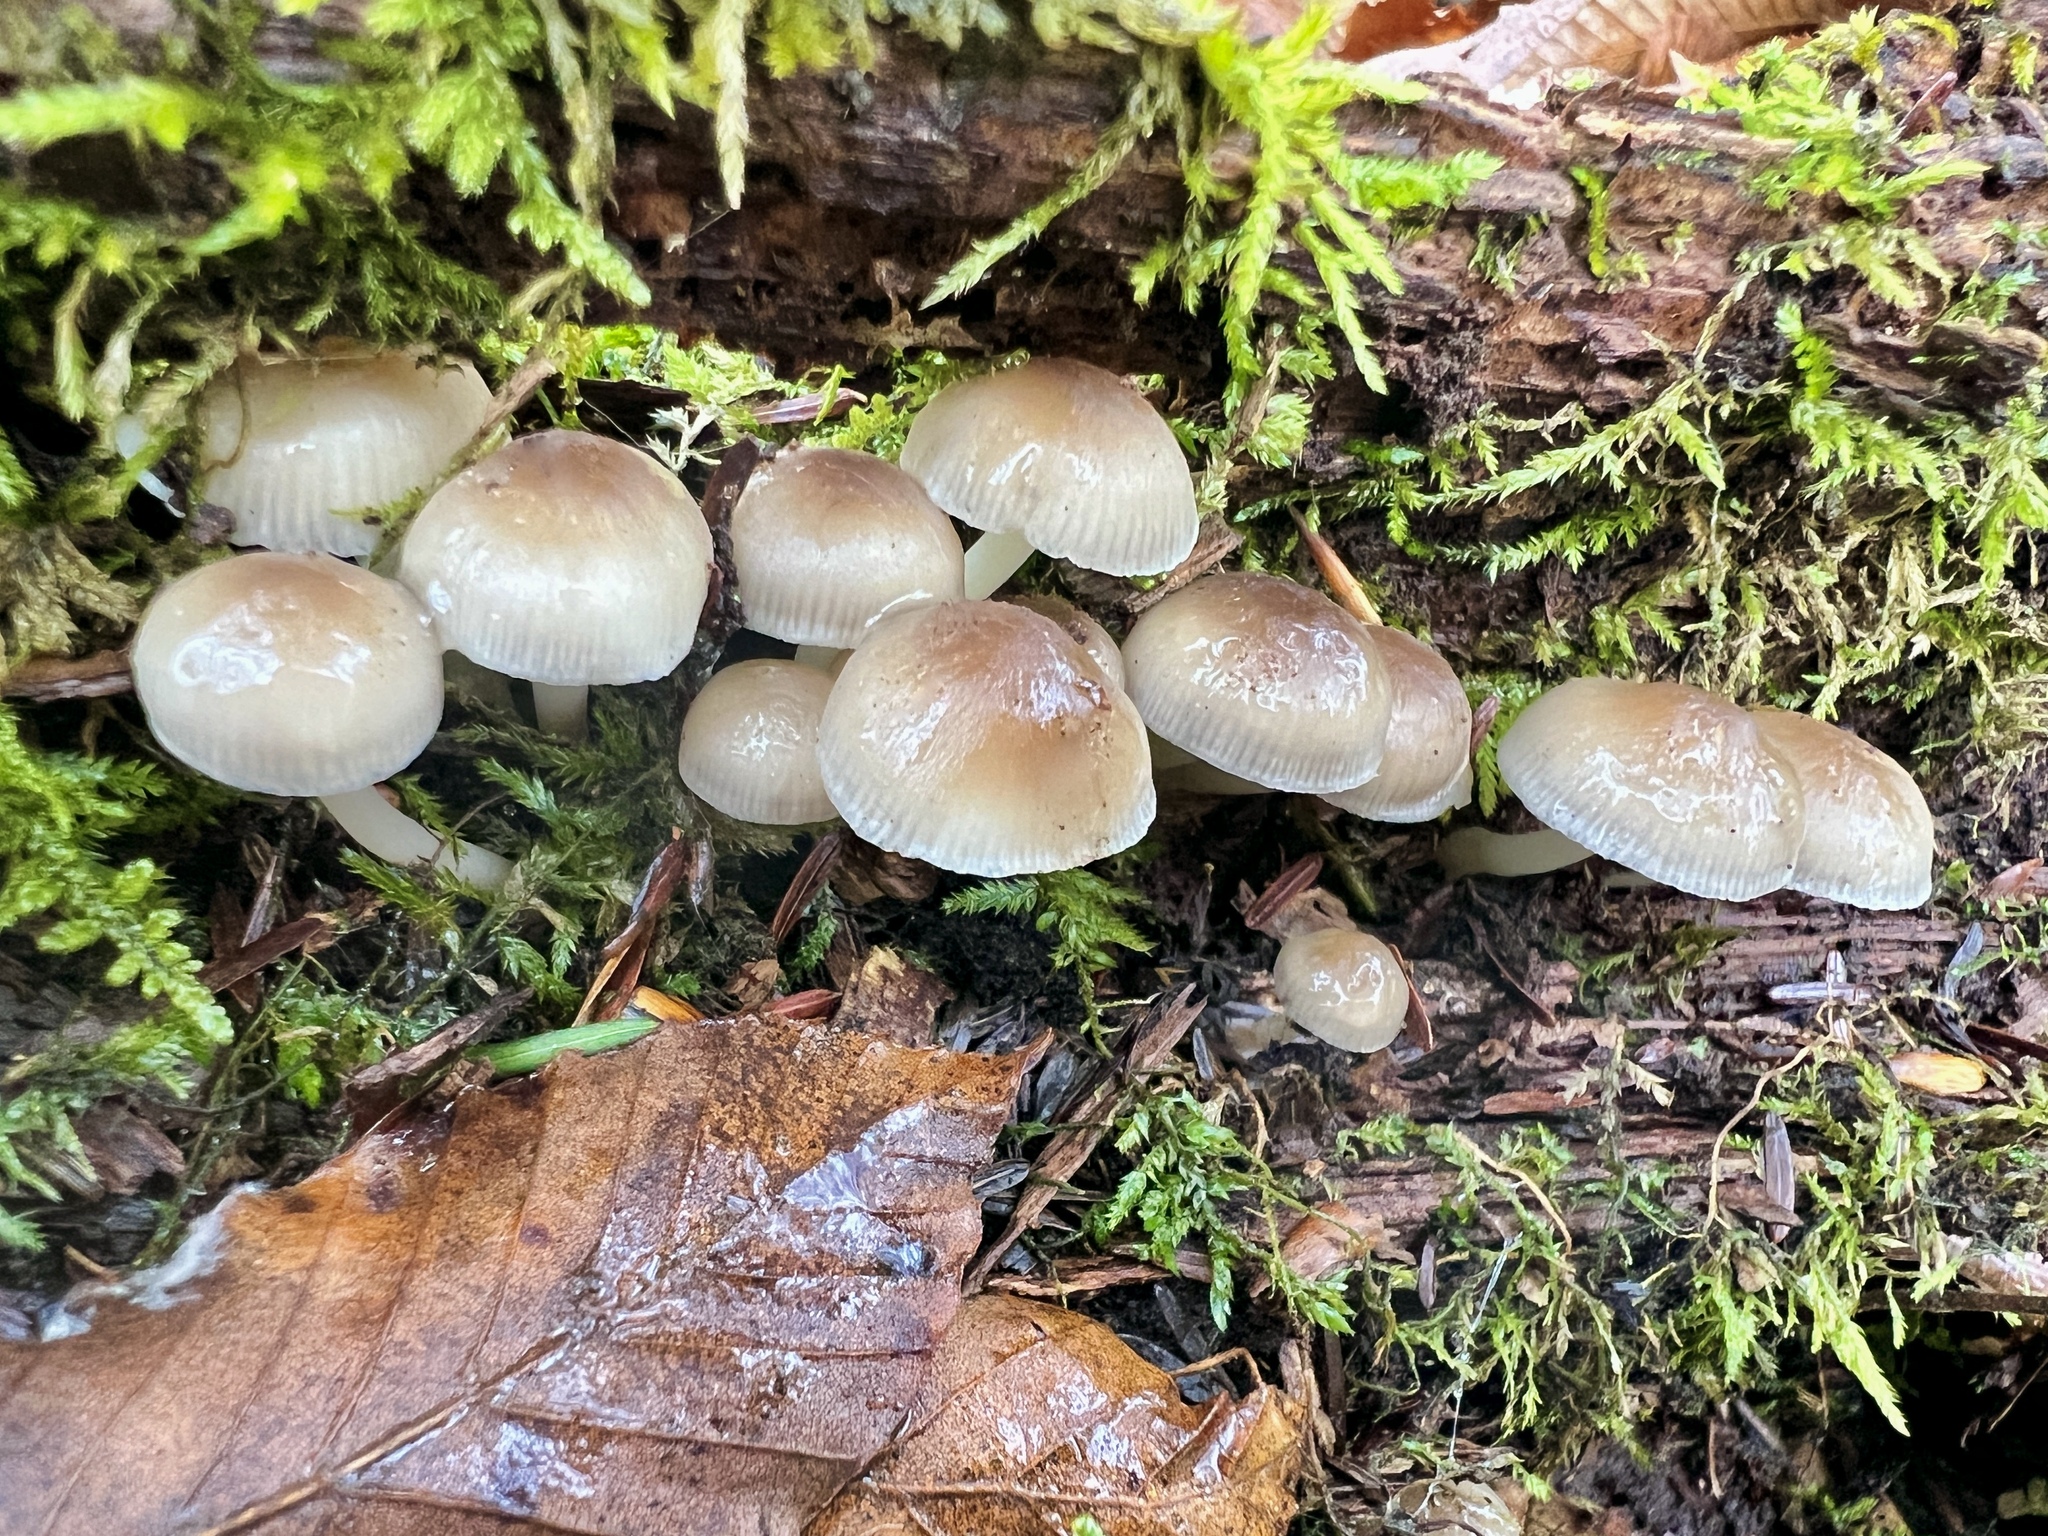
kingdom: Fungi
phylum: Basidiomycota
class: Agaricomycetes
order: Agaricales
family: Mycenaceae
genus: Mycena
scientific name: Mycena inclinata
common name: Clustered bonnet
